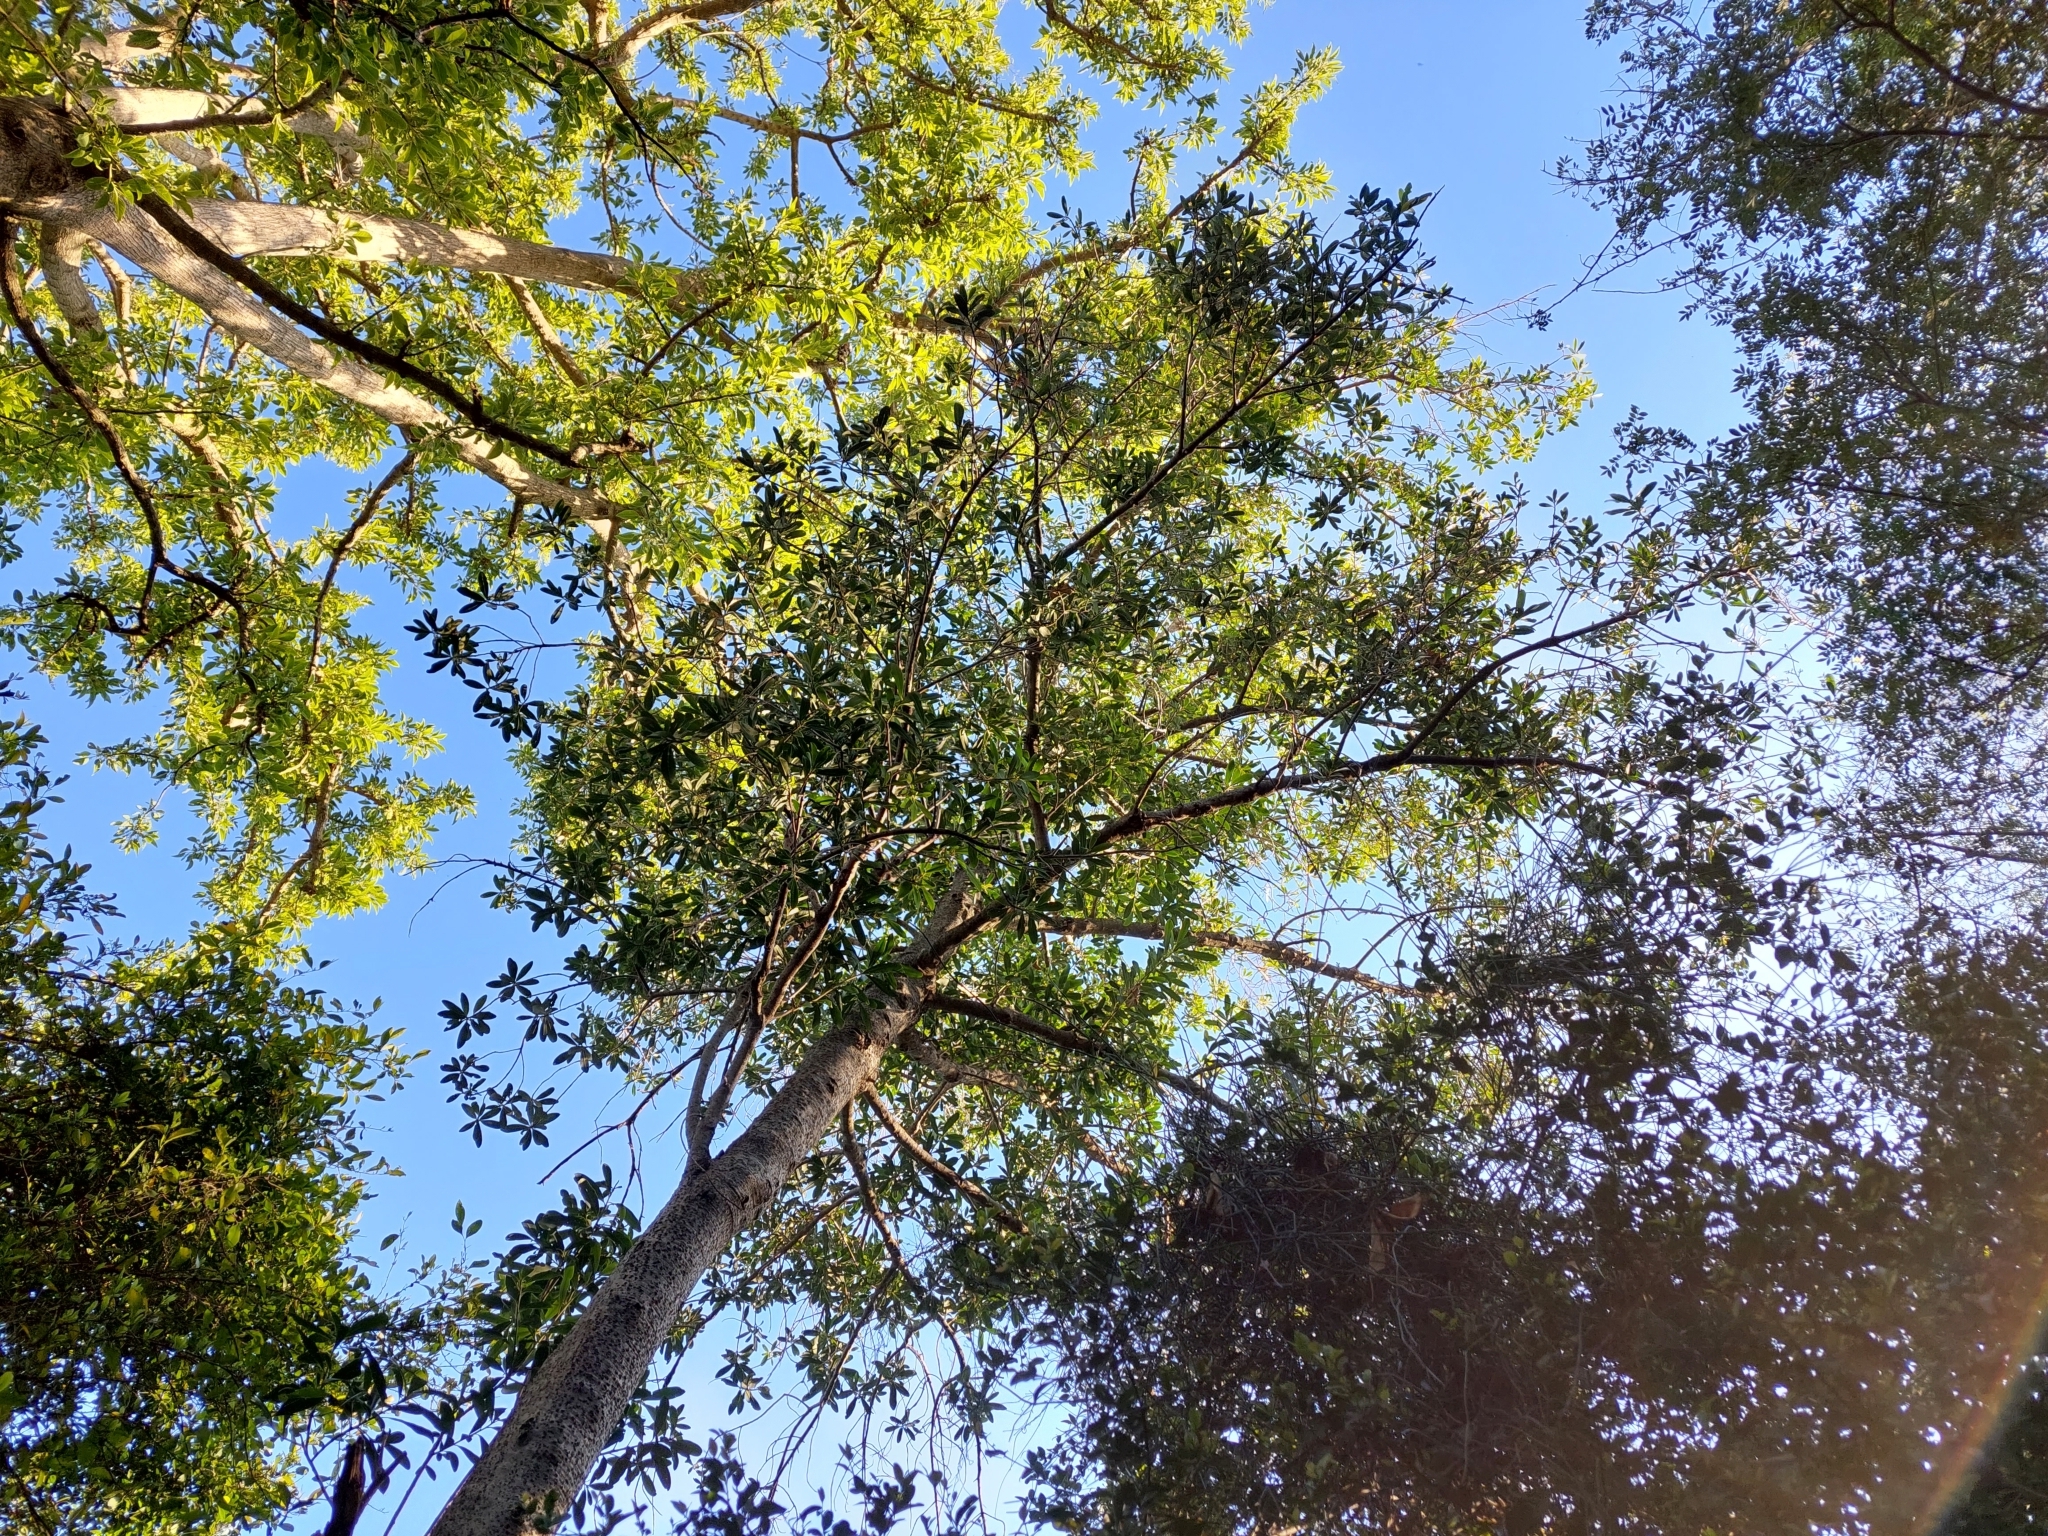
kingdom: Plantae
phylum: Tracheophyta
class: Magnoliopsida
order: Ericales
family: Primulaceae
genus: Myrsine
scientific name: Myrsine laetevirens
